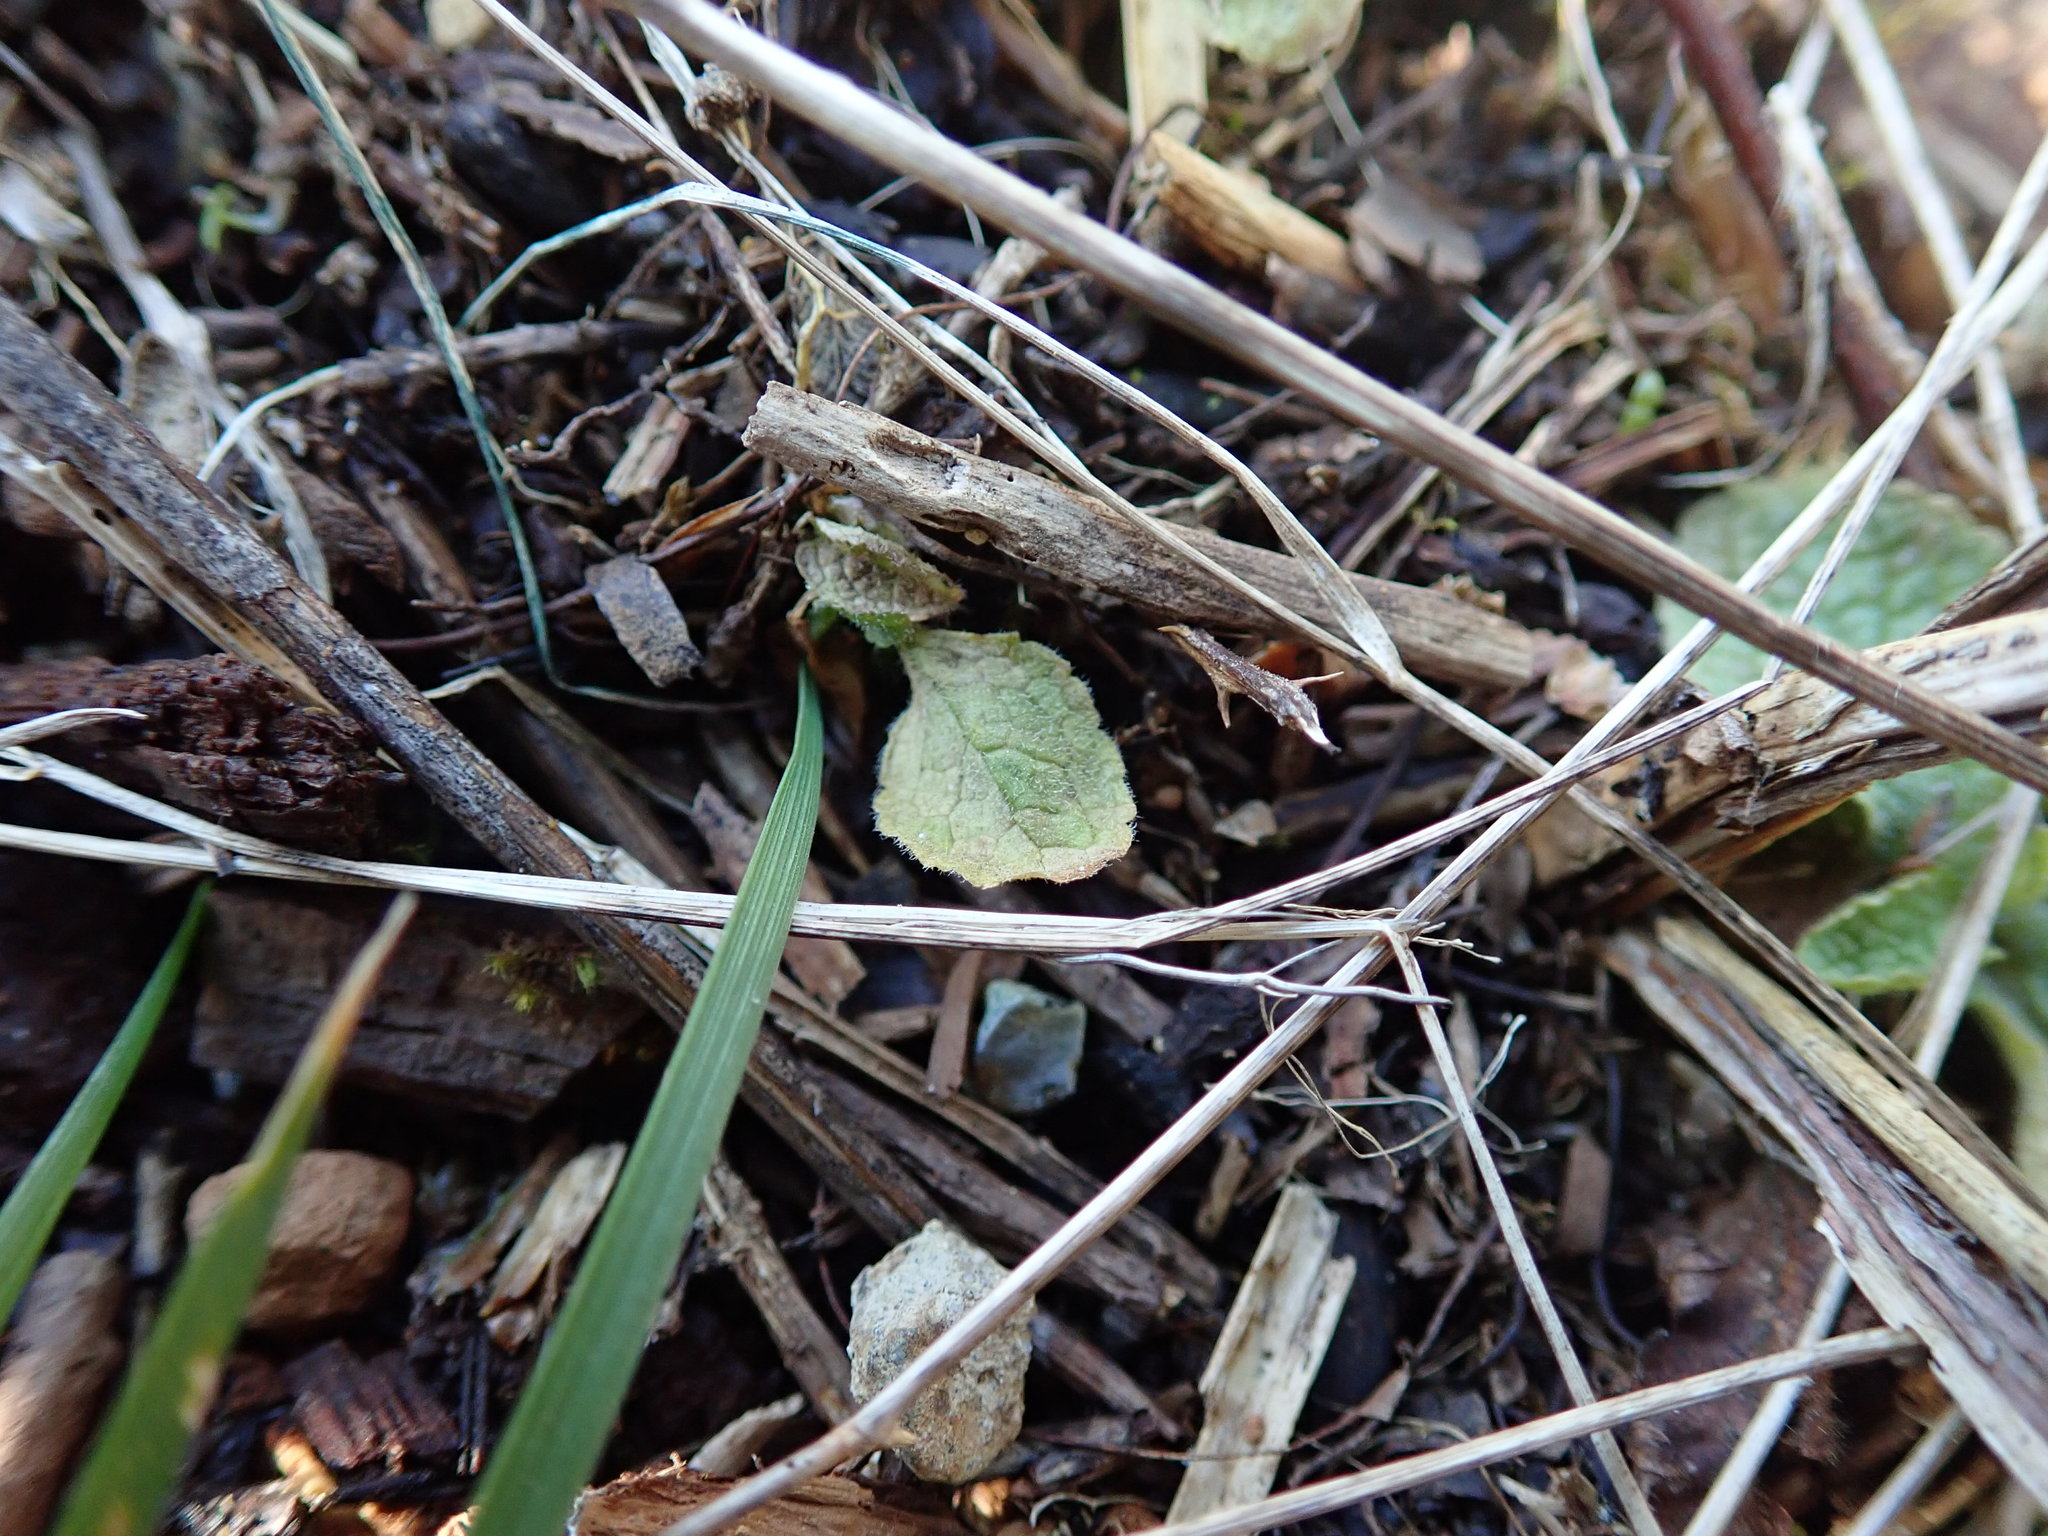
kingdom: Plantae
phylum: Tracheophyta
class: Magnoliopsida
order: Lamiales
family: Plantaginaceae
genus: Digitalis
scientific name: Digitalis purpurea
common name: Foxglove
